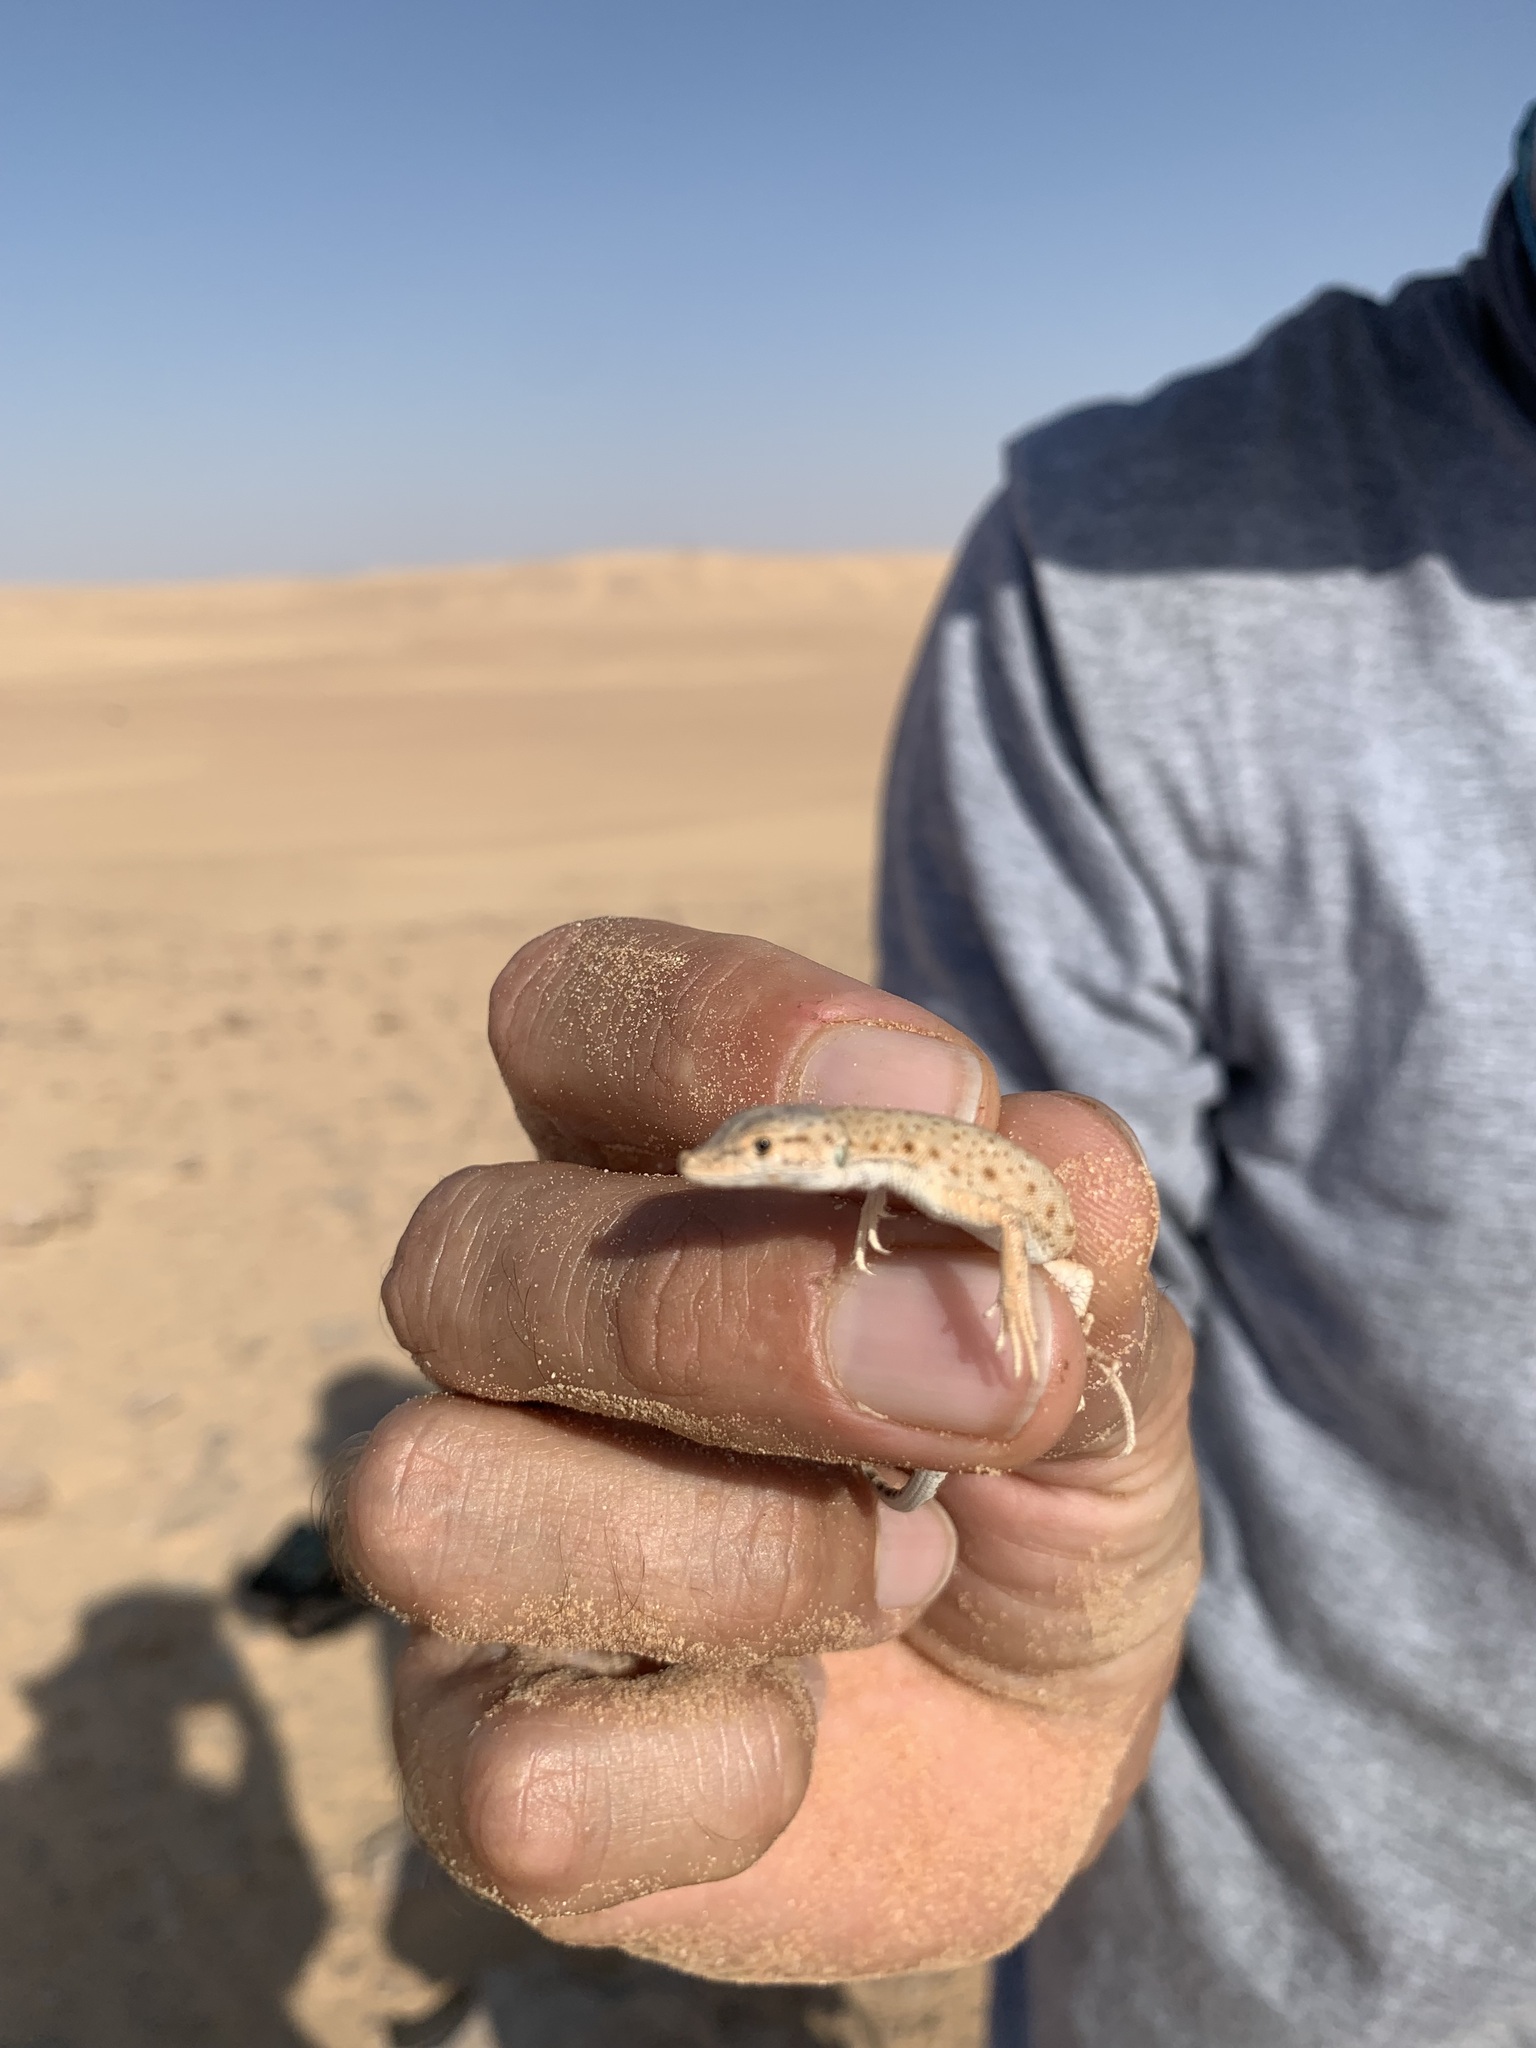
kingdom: Animalia
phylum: Chordata
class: Squamata
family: Lacertidae
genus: Mesalina
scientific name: Mesalina brevirostris
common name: Blanford's short-nosed desert lizard
